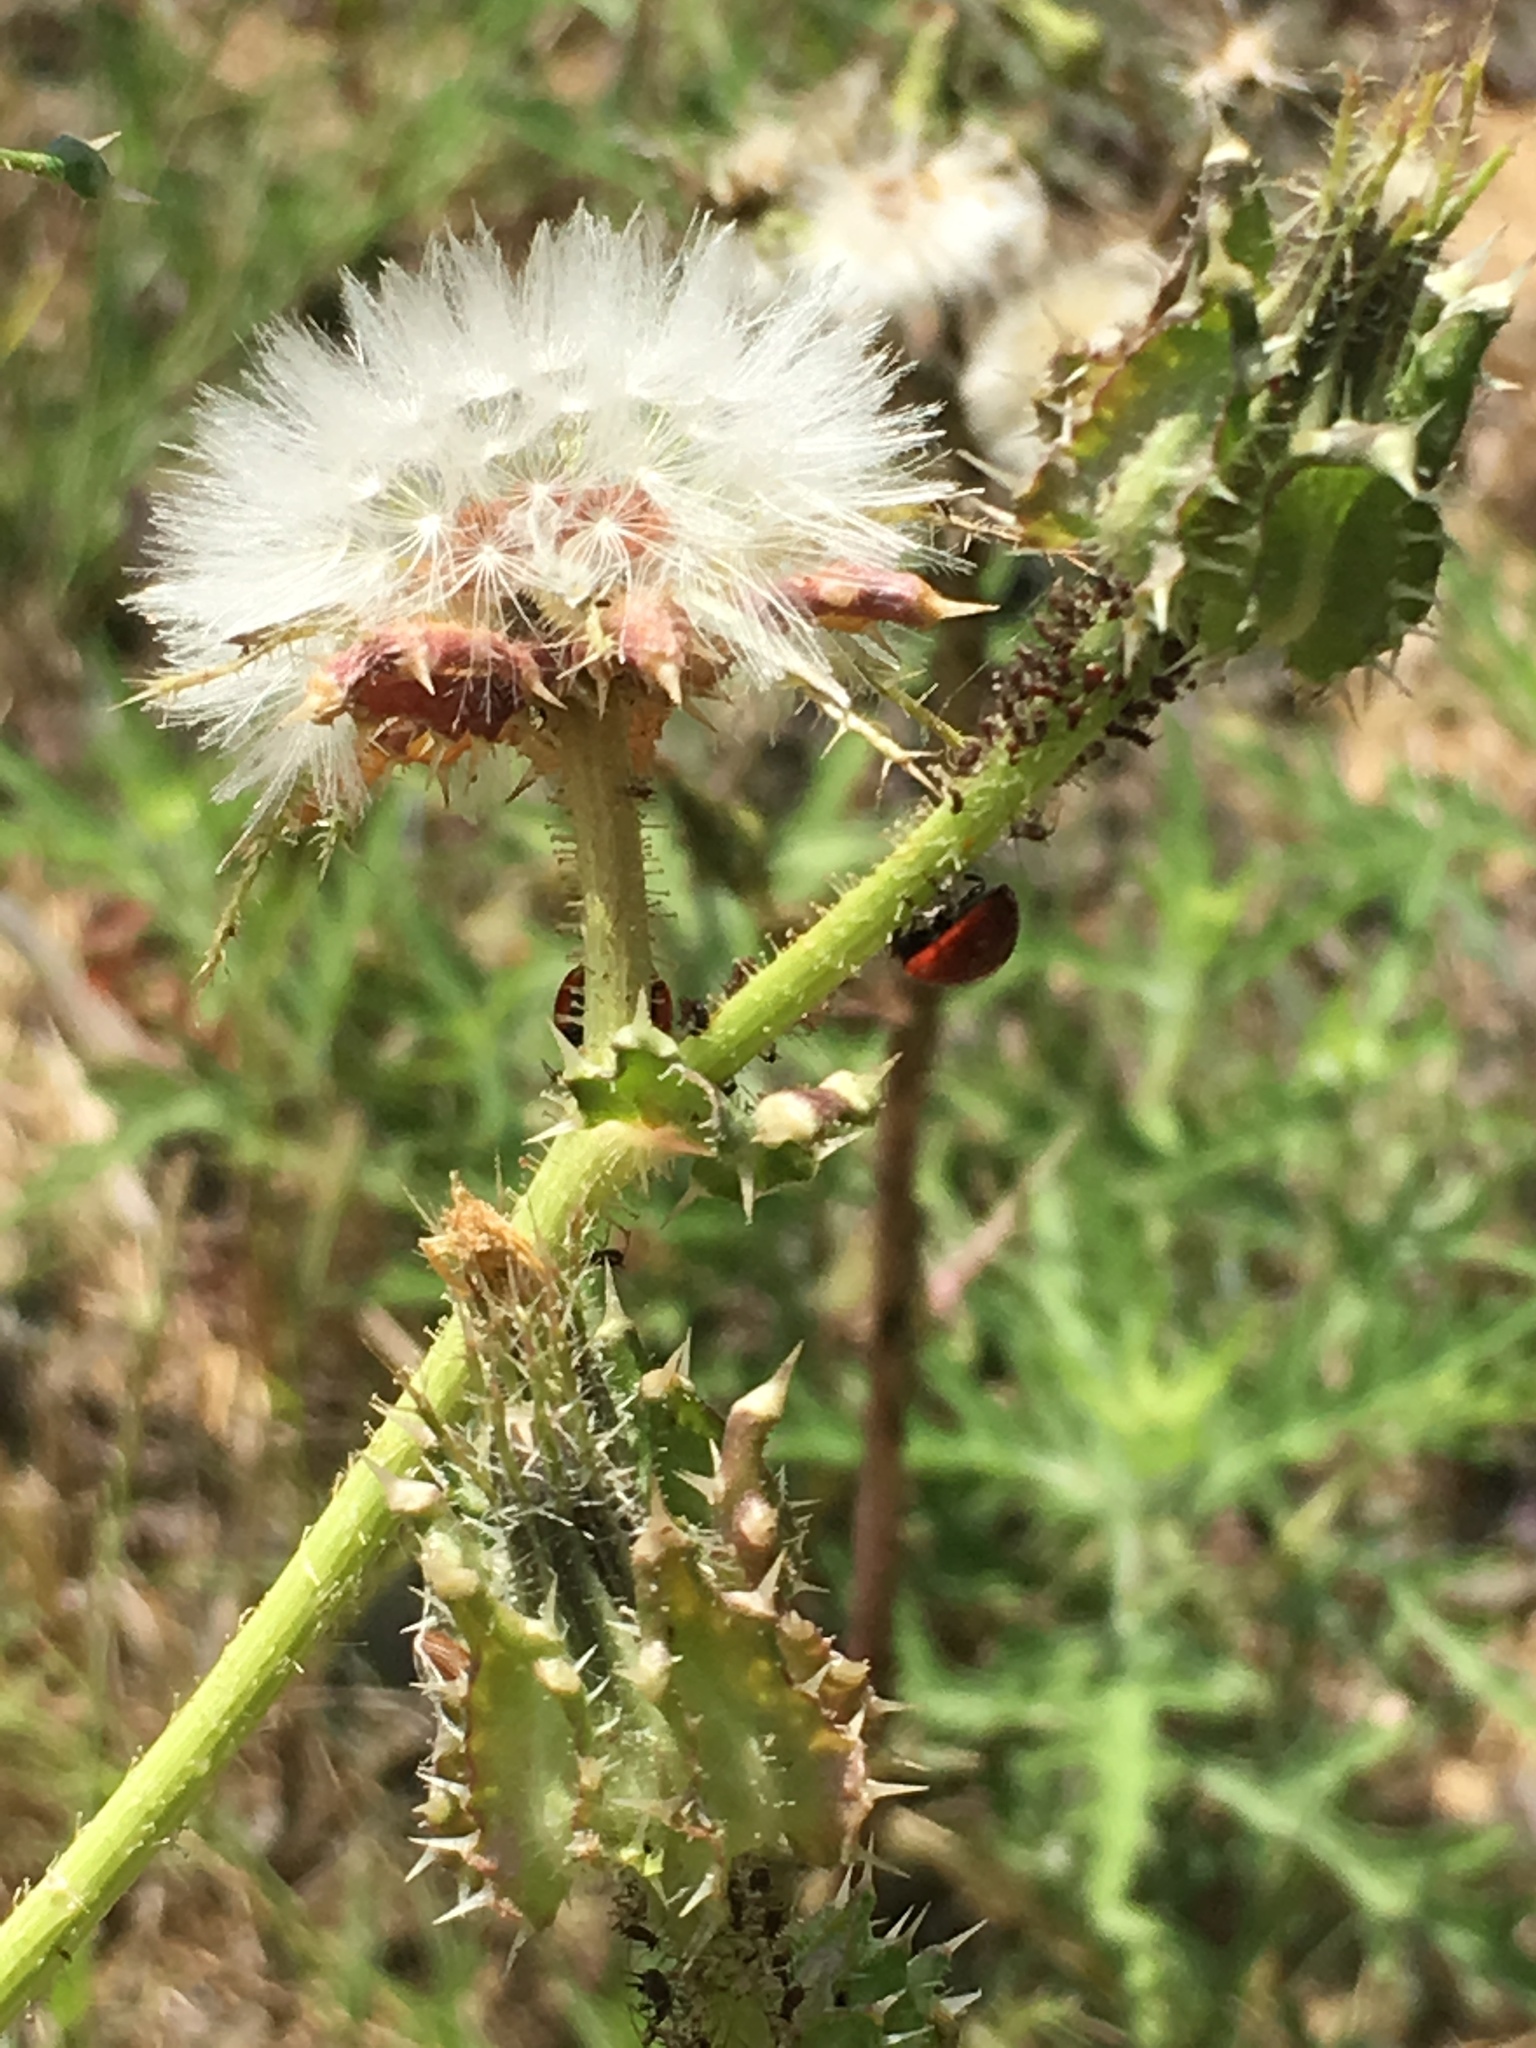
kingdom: Plantae
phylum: Tracheophyta
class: Magnoliopsida
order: Asterales
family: Asteraceae
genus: Helminthotheca
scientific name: Helminthotheca echioides
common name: Ox-tongue
